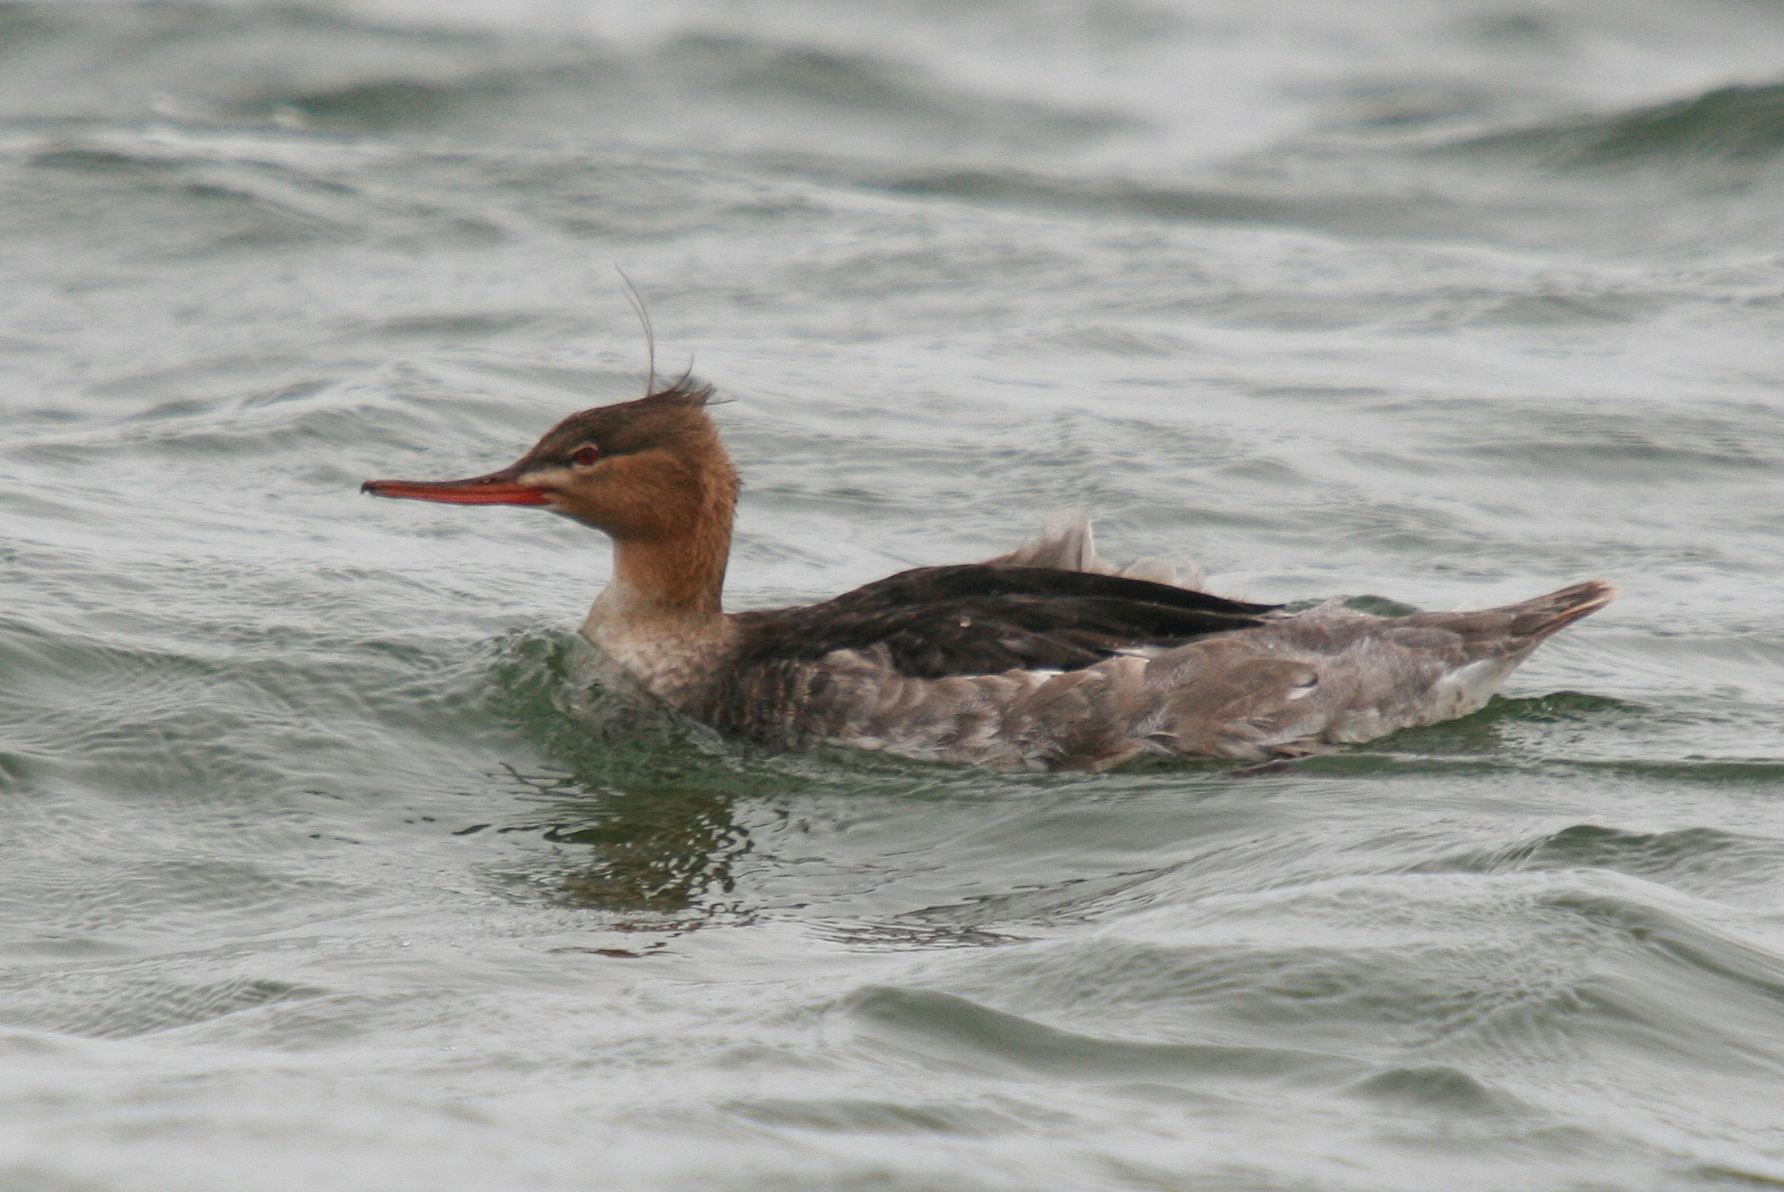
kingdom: Animalia
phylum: Chordata
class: Aves
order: Anseriformes
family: Anatidae
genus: Mergus
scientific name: Mergus serrator
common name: Red-breasted merganser
